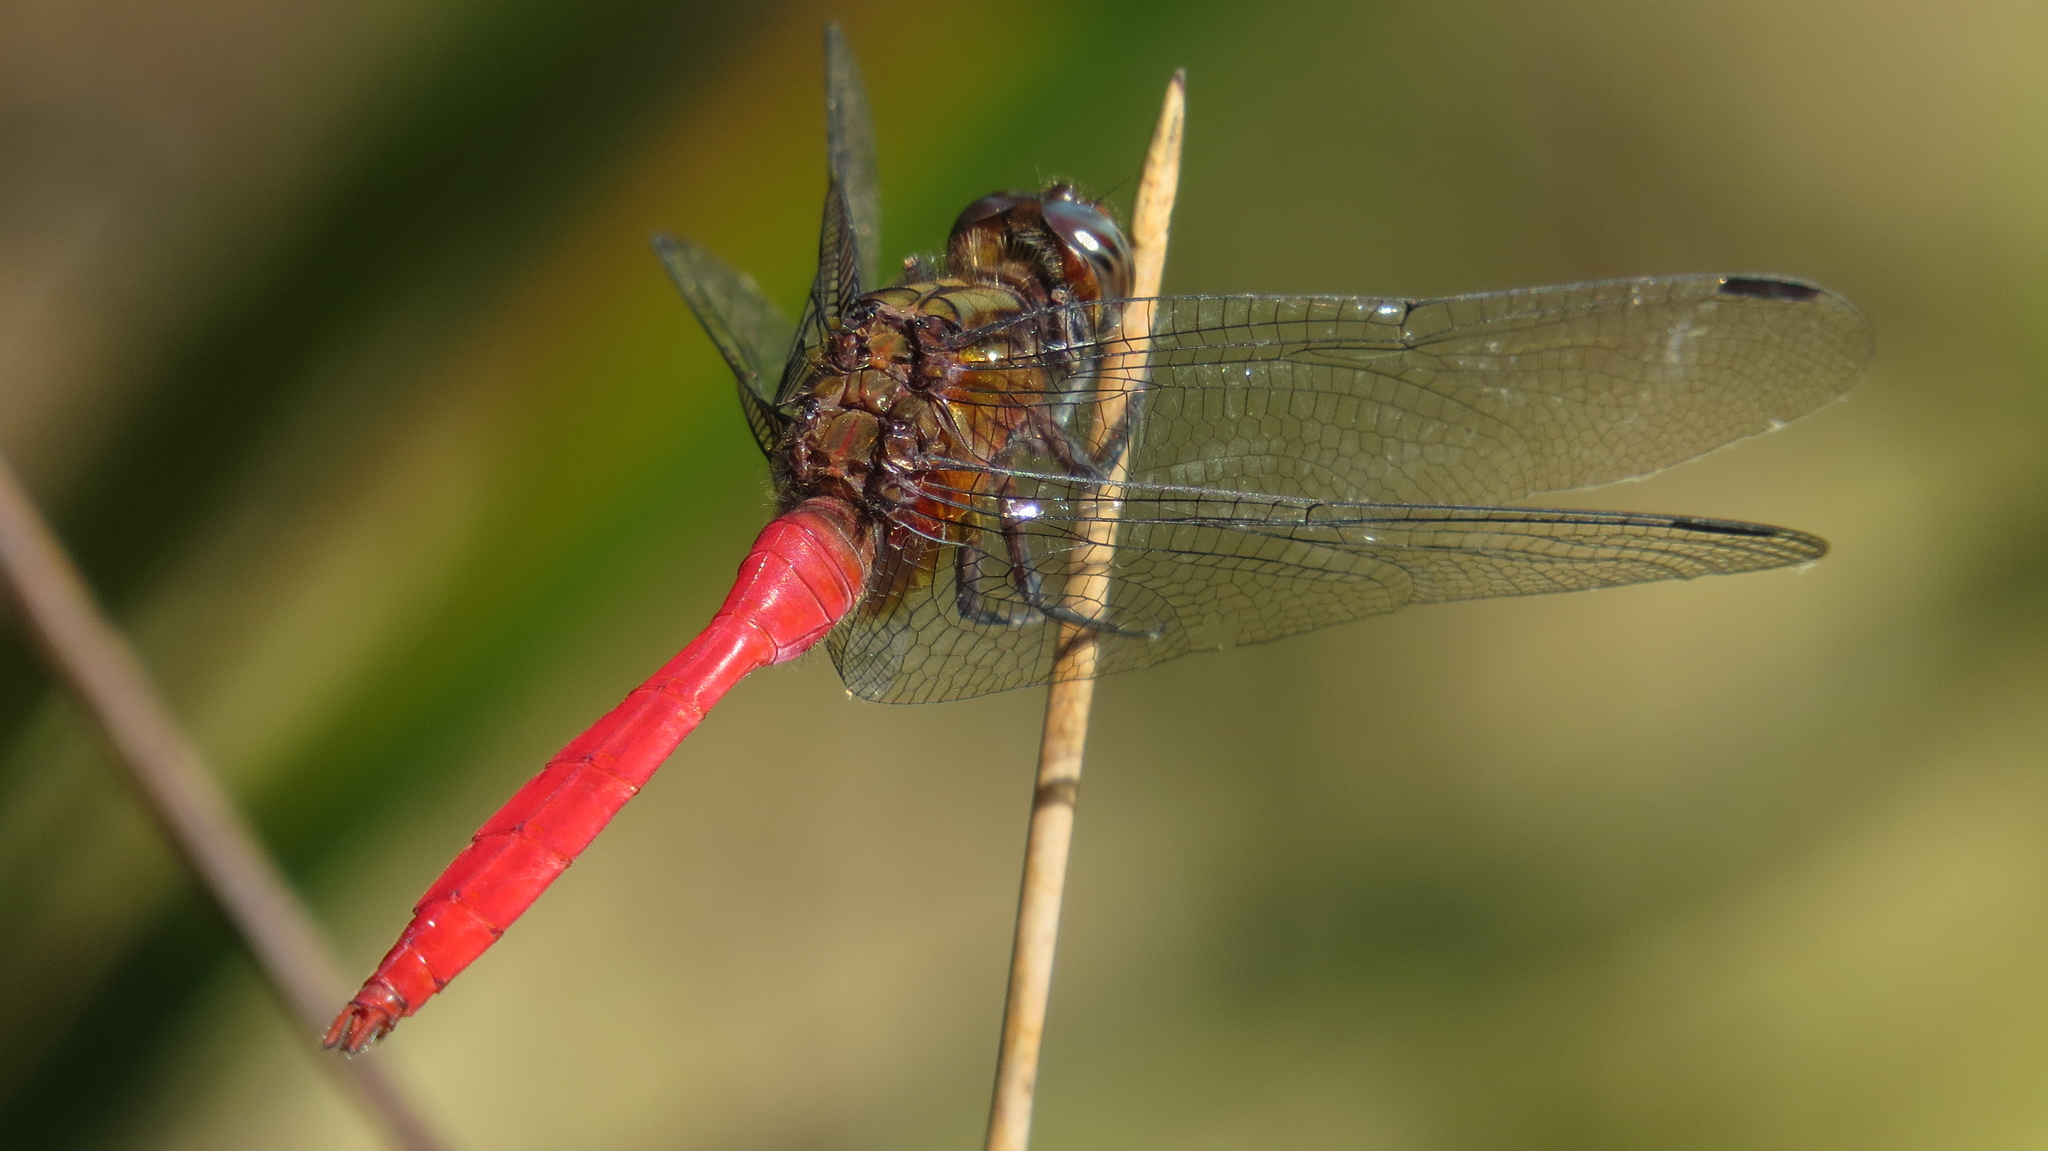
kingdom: Animalia
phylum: Arthropoda
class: Insecta
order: Odonata
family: Libellulidae
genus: Orthetrum
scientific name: Orthetrum villosovittatum
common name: Firery skimmer
